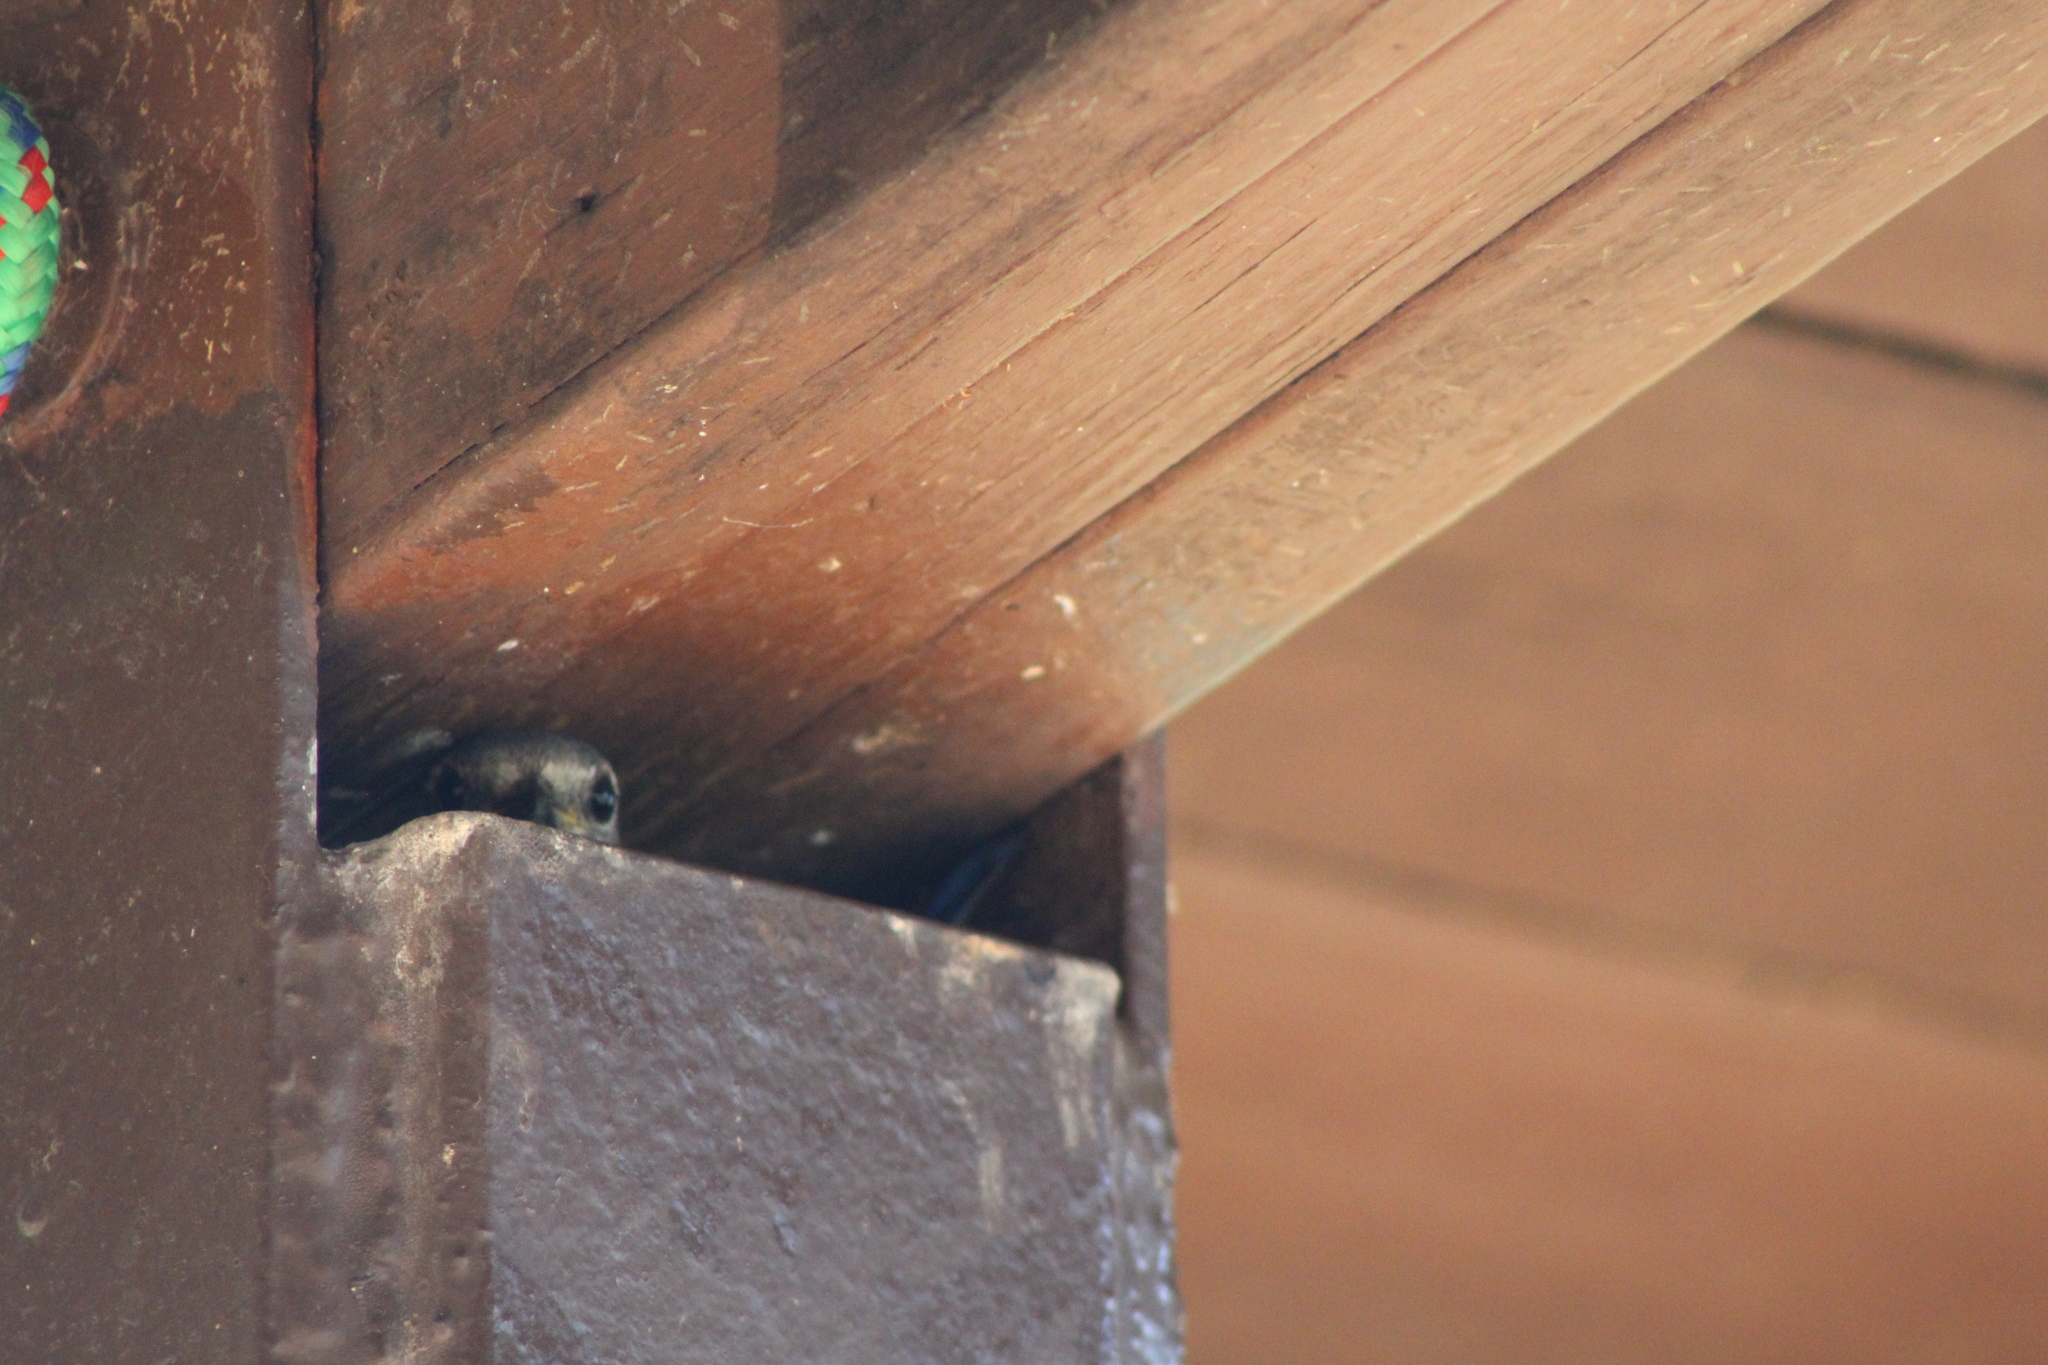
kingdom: Animalia
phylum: Chordata
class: Aves
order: Passeriformes
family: Turdidae
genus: Sialia
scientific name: Sialia sialis
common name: Eastern bluebird
